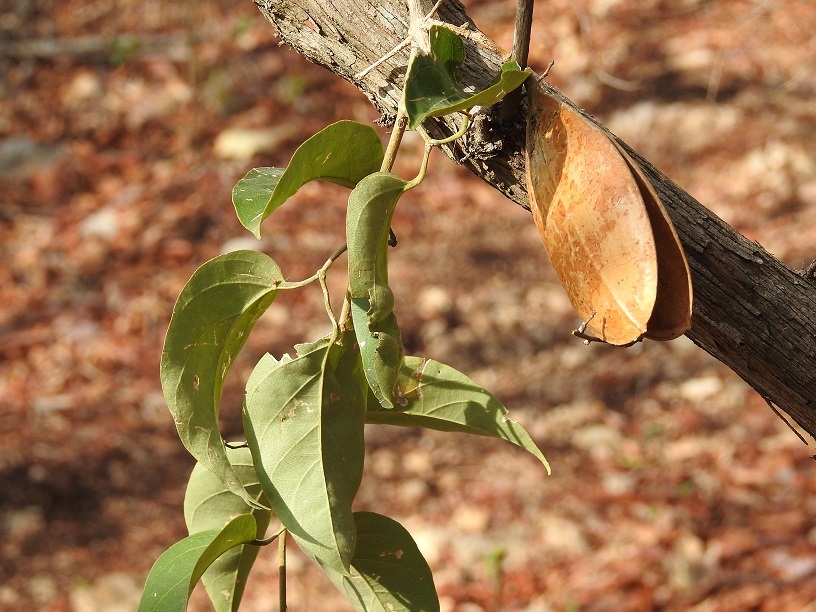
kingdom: Plantae
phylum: Tracheophyta
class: Magnoliopsida
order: Lamiales
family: Bignoniaceae
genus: Anemopaegma
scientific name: Anemopaegma puberulum
